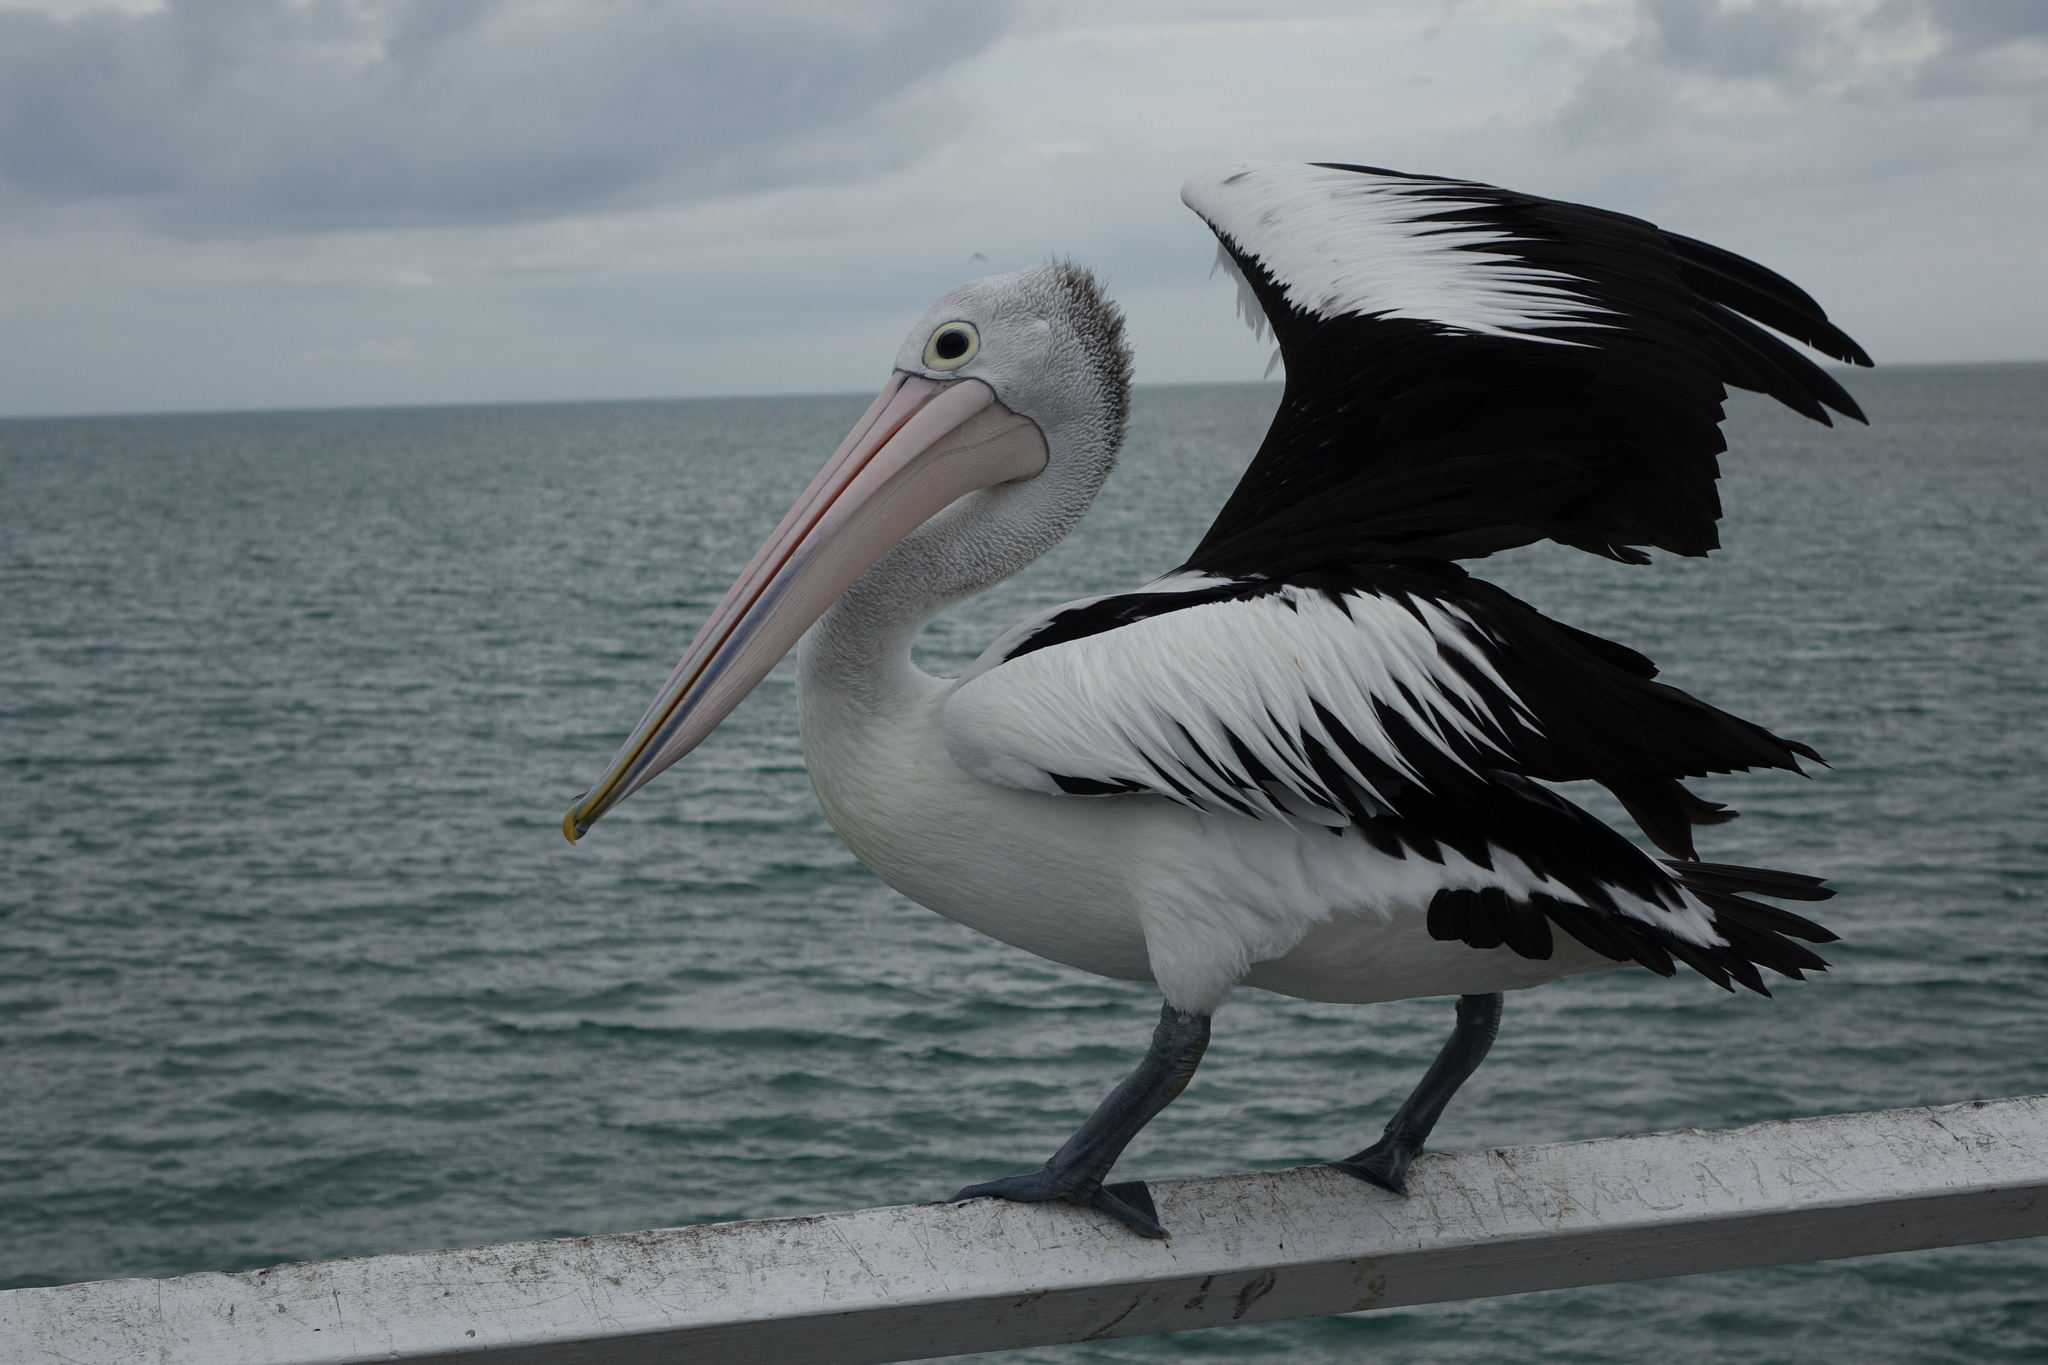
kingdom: Animalia
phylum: Chordata
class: Aves
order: Pelecaniformes
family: Pelecanidae
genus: Pelecanus
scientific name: Pelecanus conspicillatus
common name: Australian pelican
